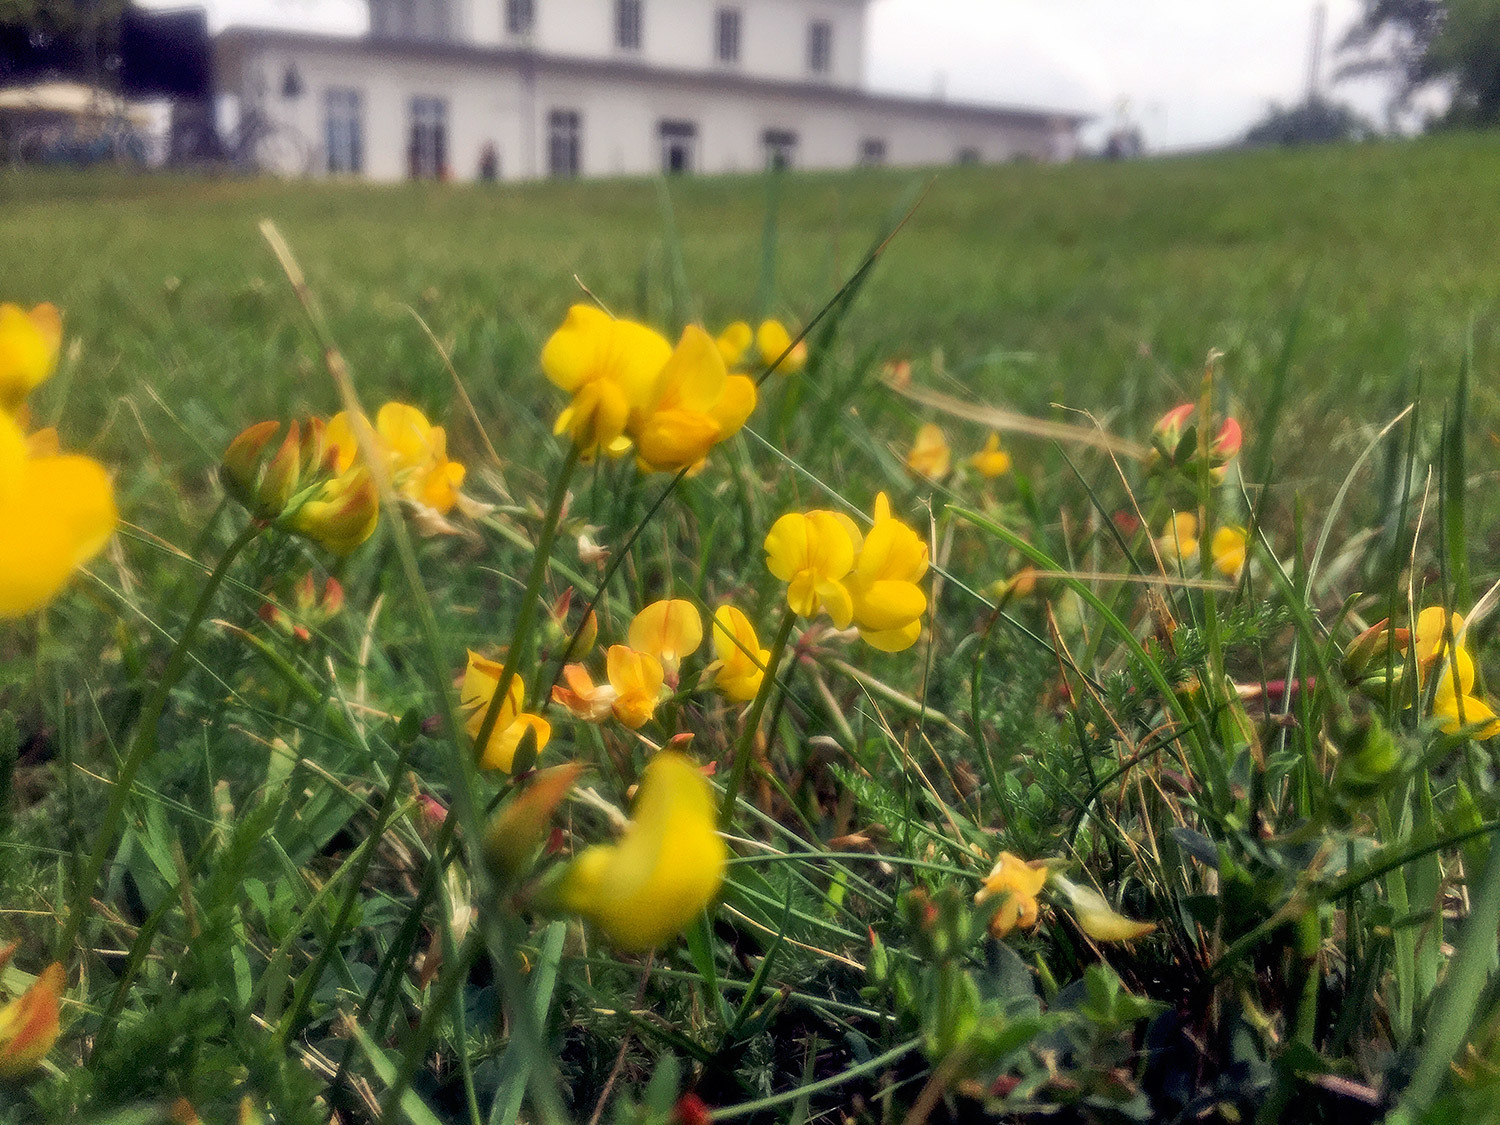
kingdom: Plantae
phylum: Tracheophyta
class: Magnoliopsida
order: Fabales
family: Fabaceae
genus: Lotus
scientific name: Lotus corniculatus
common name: Common bird's-foot-trefoil
